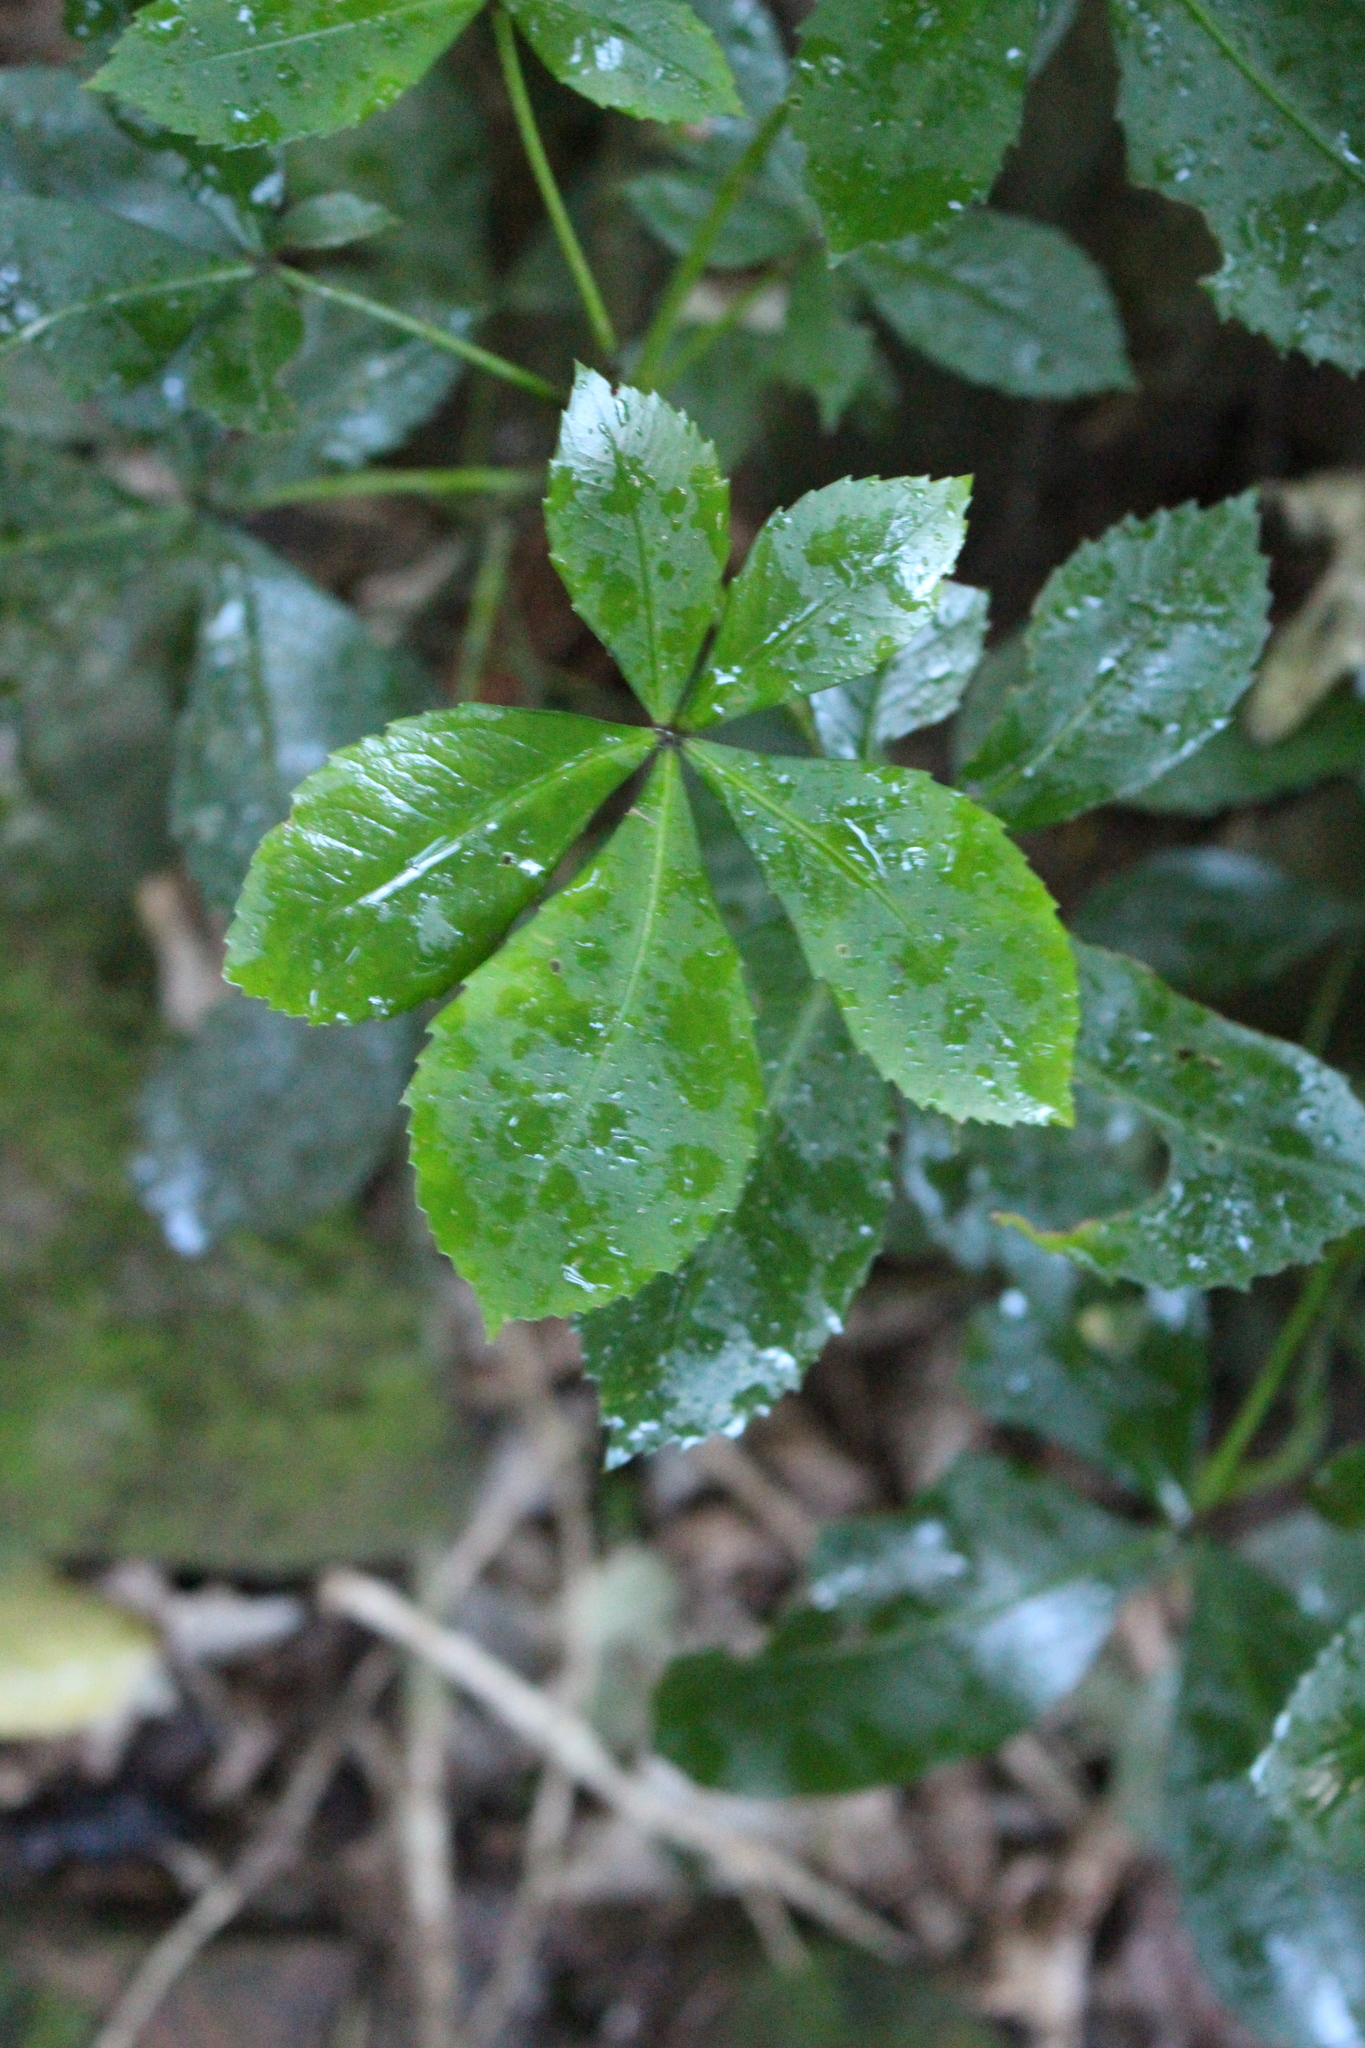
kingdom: Plantae
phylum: Tracheophyta
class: Magnoliopsida
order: Apiales
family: Araliaceae
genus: Pseudopanax
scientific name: Pseudopanax lessonii
